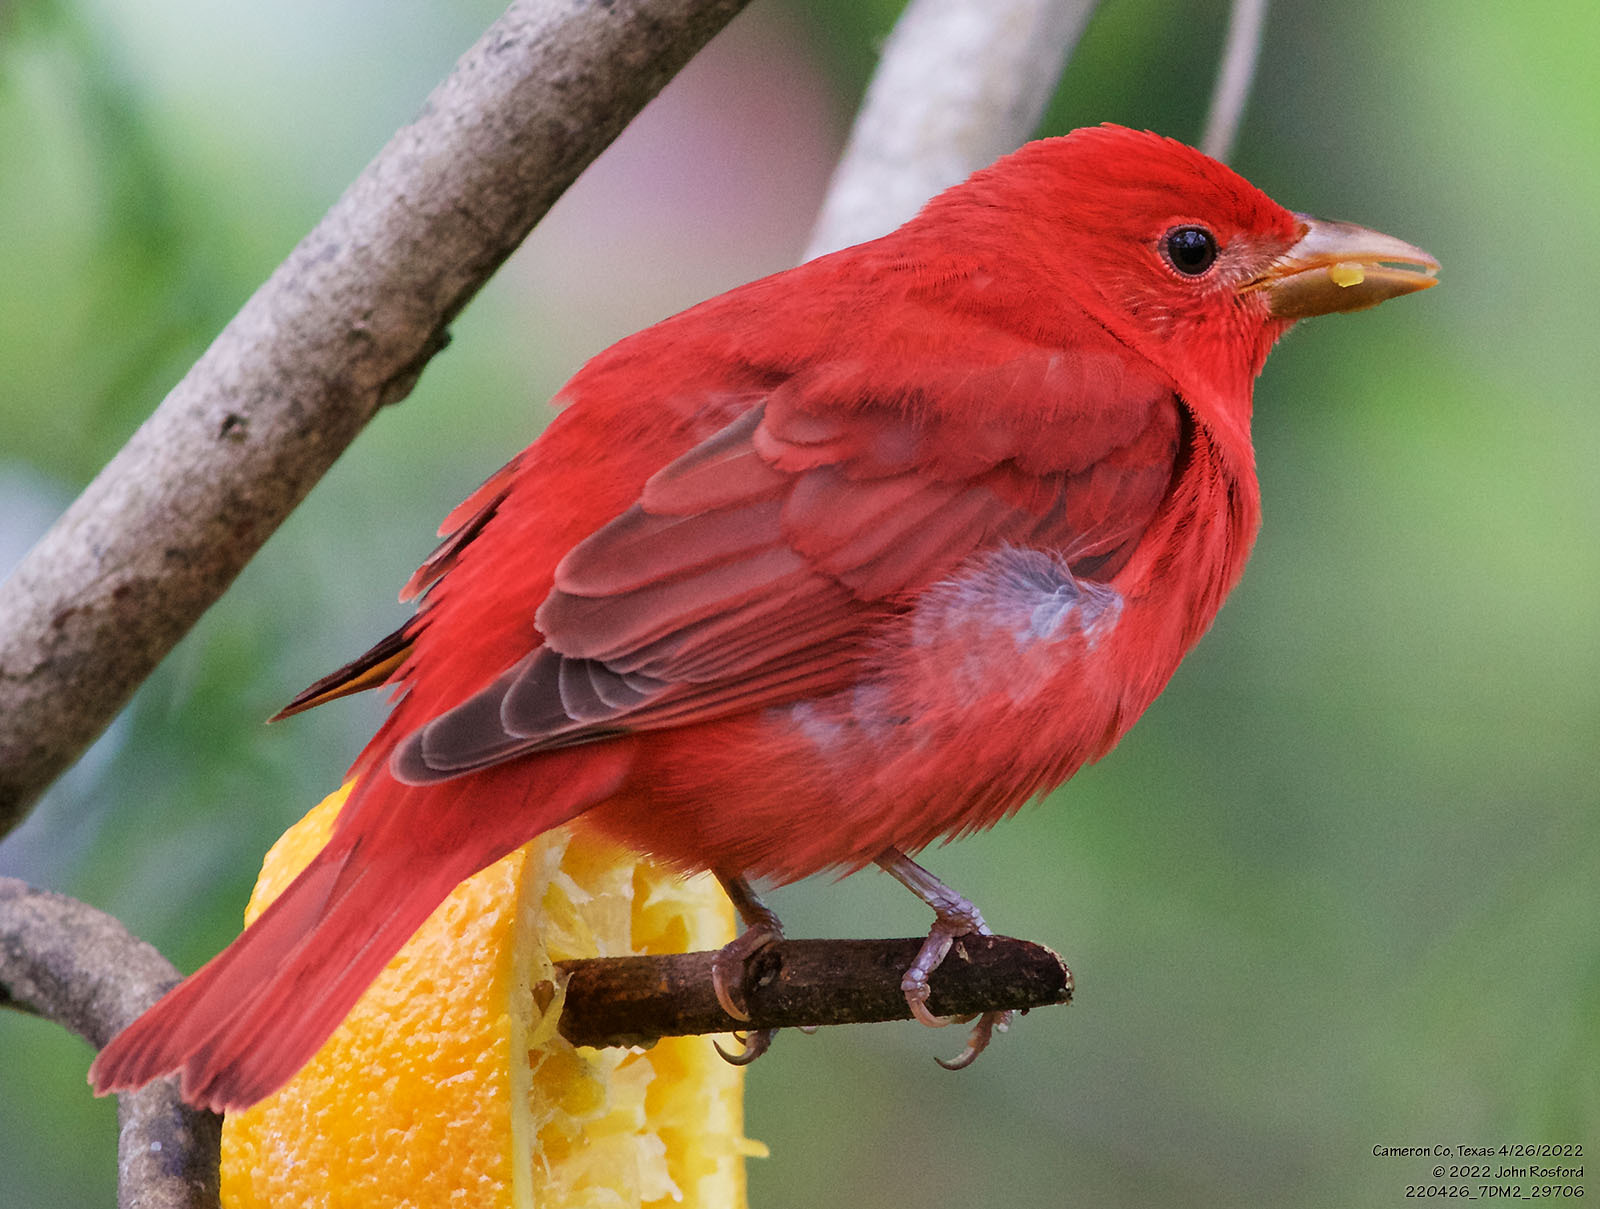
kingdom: Animalia
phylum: Chordata
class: Aves
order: Passeriformes
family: Cardinalidae
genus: Piranga
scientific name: Piranga rubra
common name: Summer tanager
